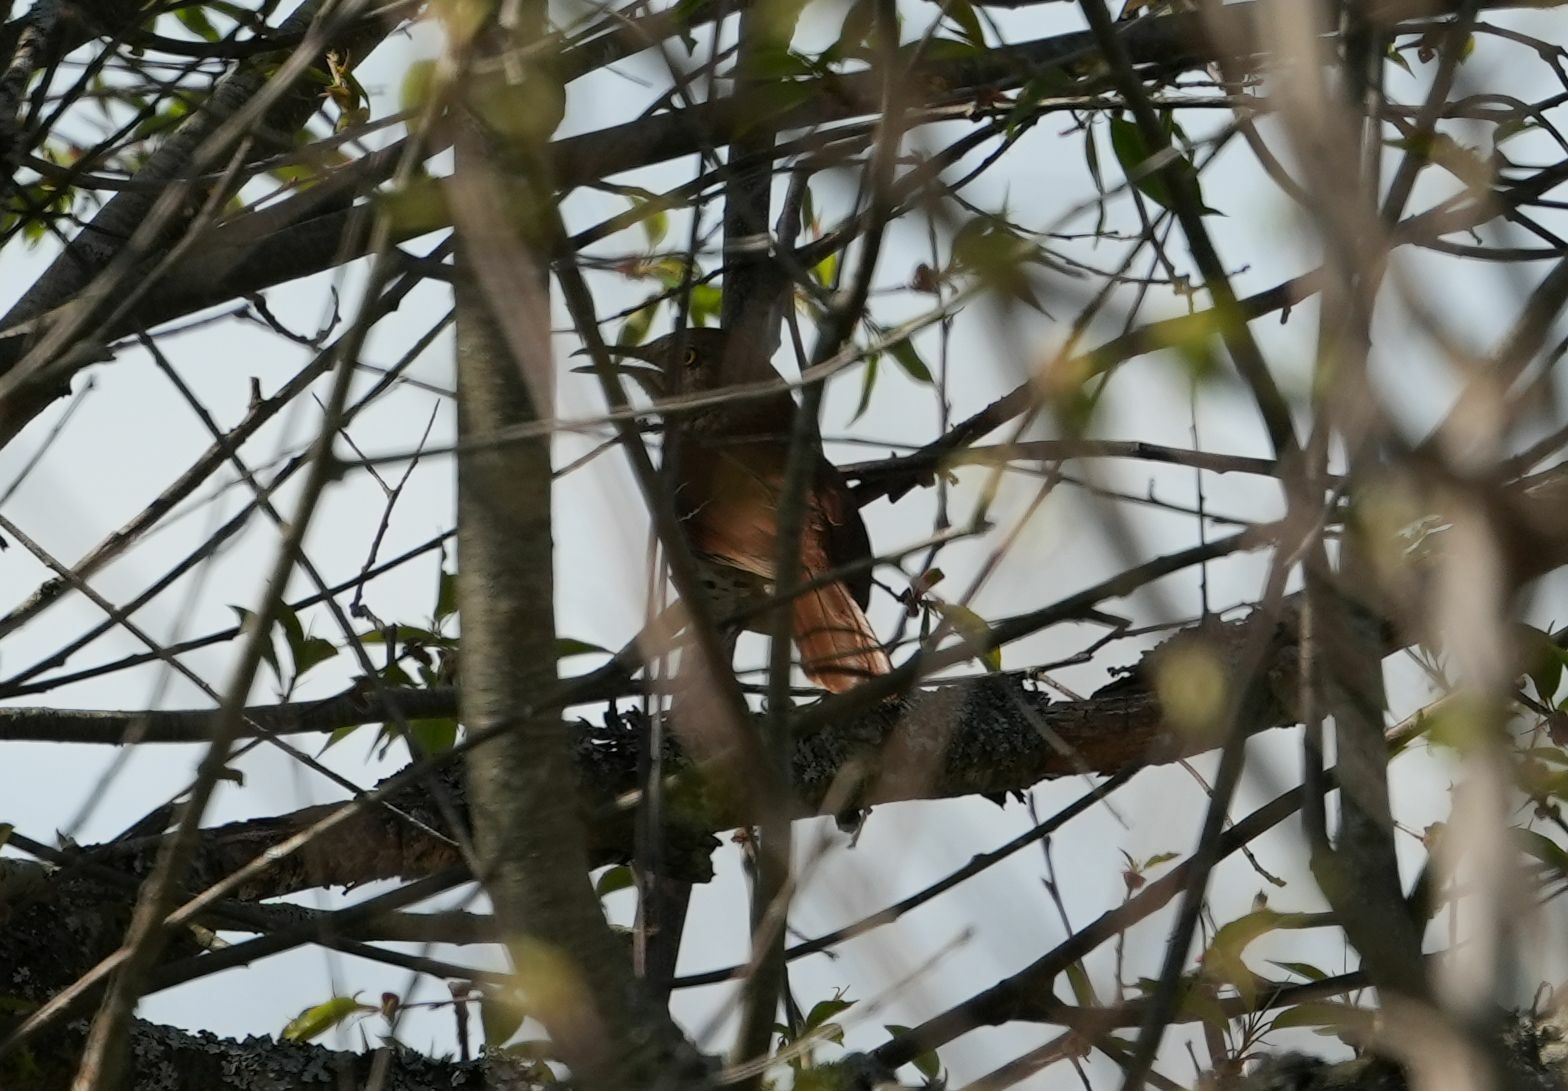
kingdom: Animalia
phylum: Chordata
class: Aves
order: Passeriformes
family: Mimidae
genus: Toxostoma
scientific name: Toxostoma rufum
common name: Brown thrasher
